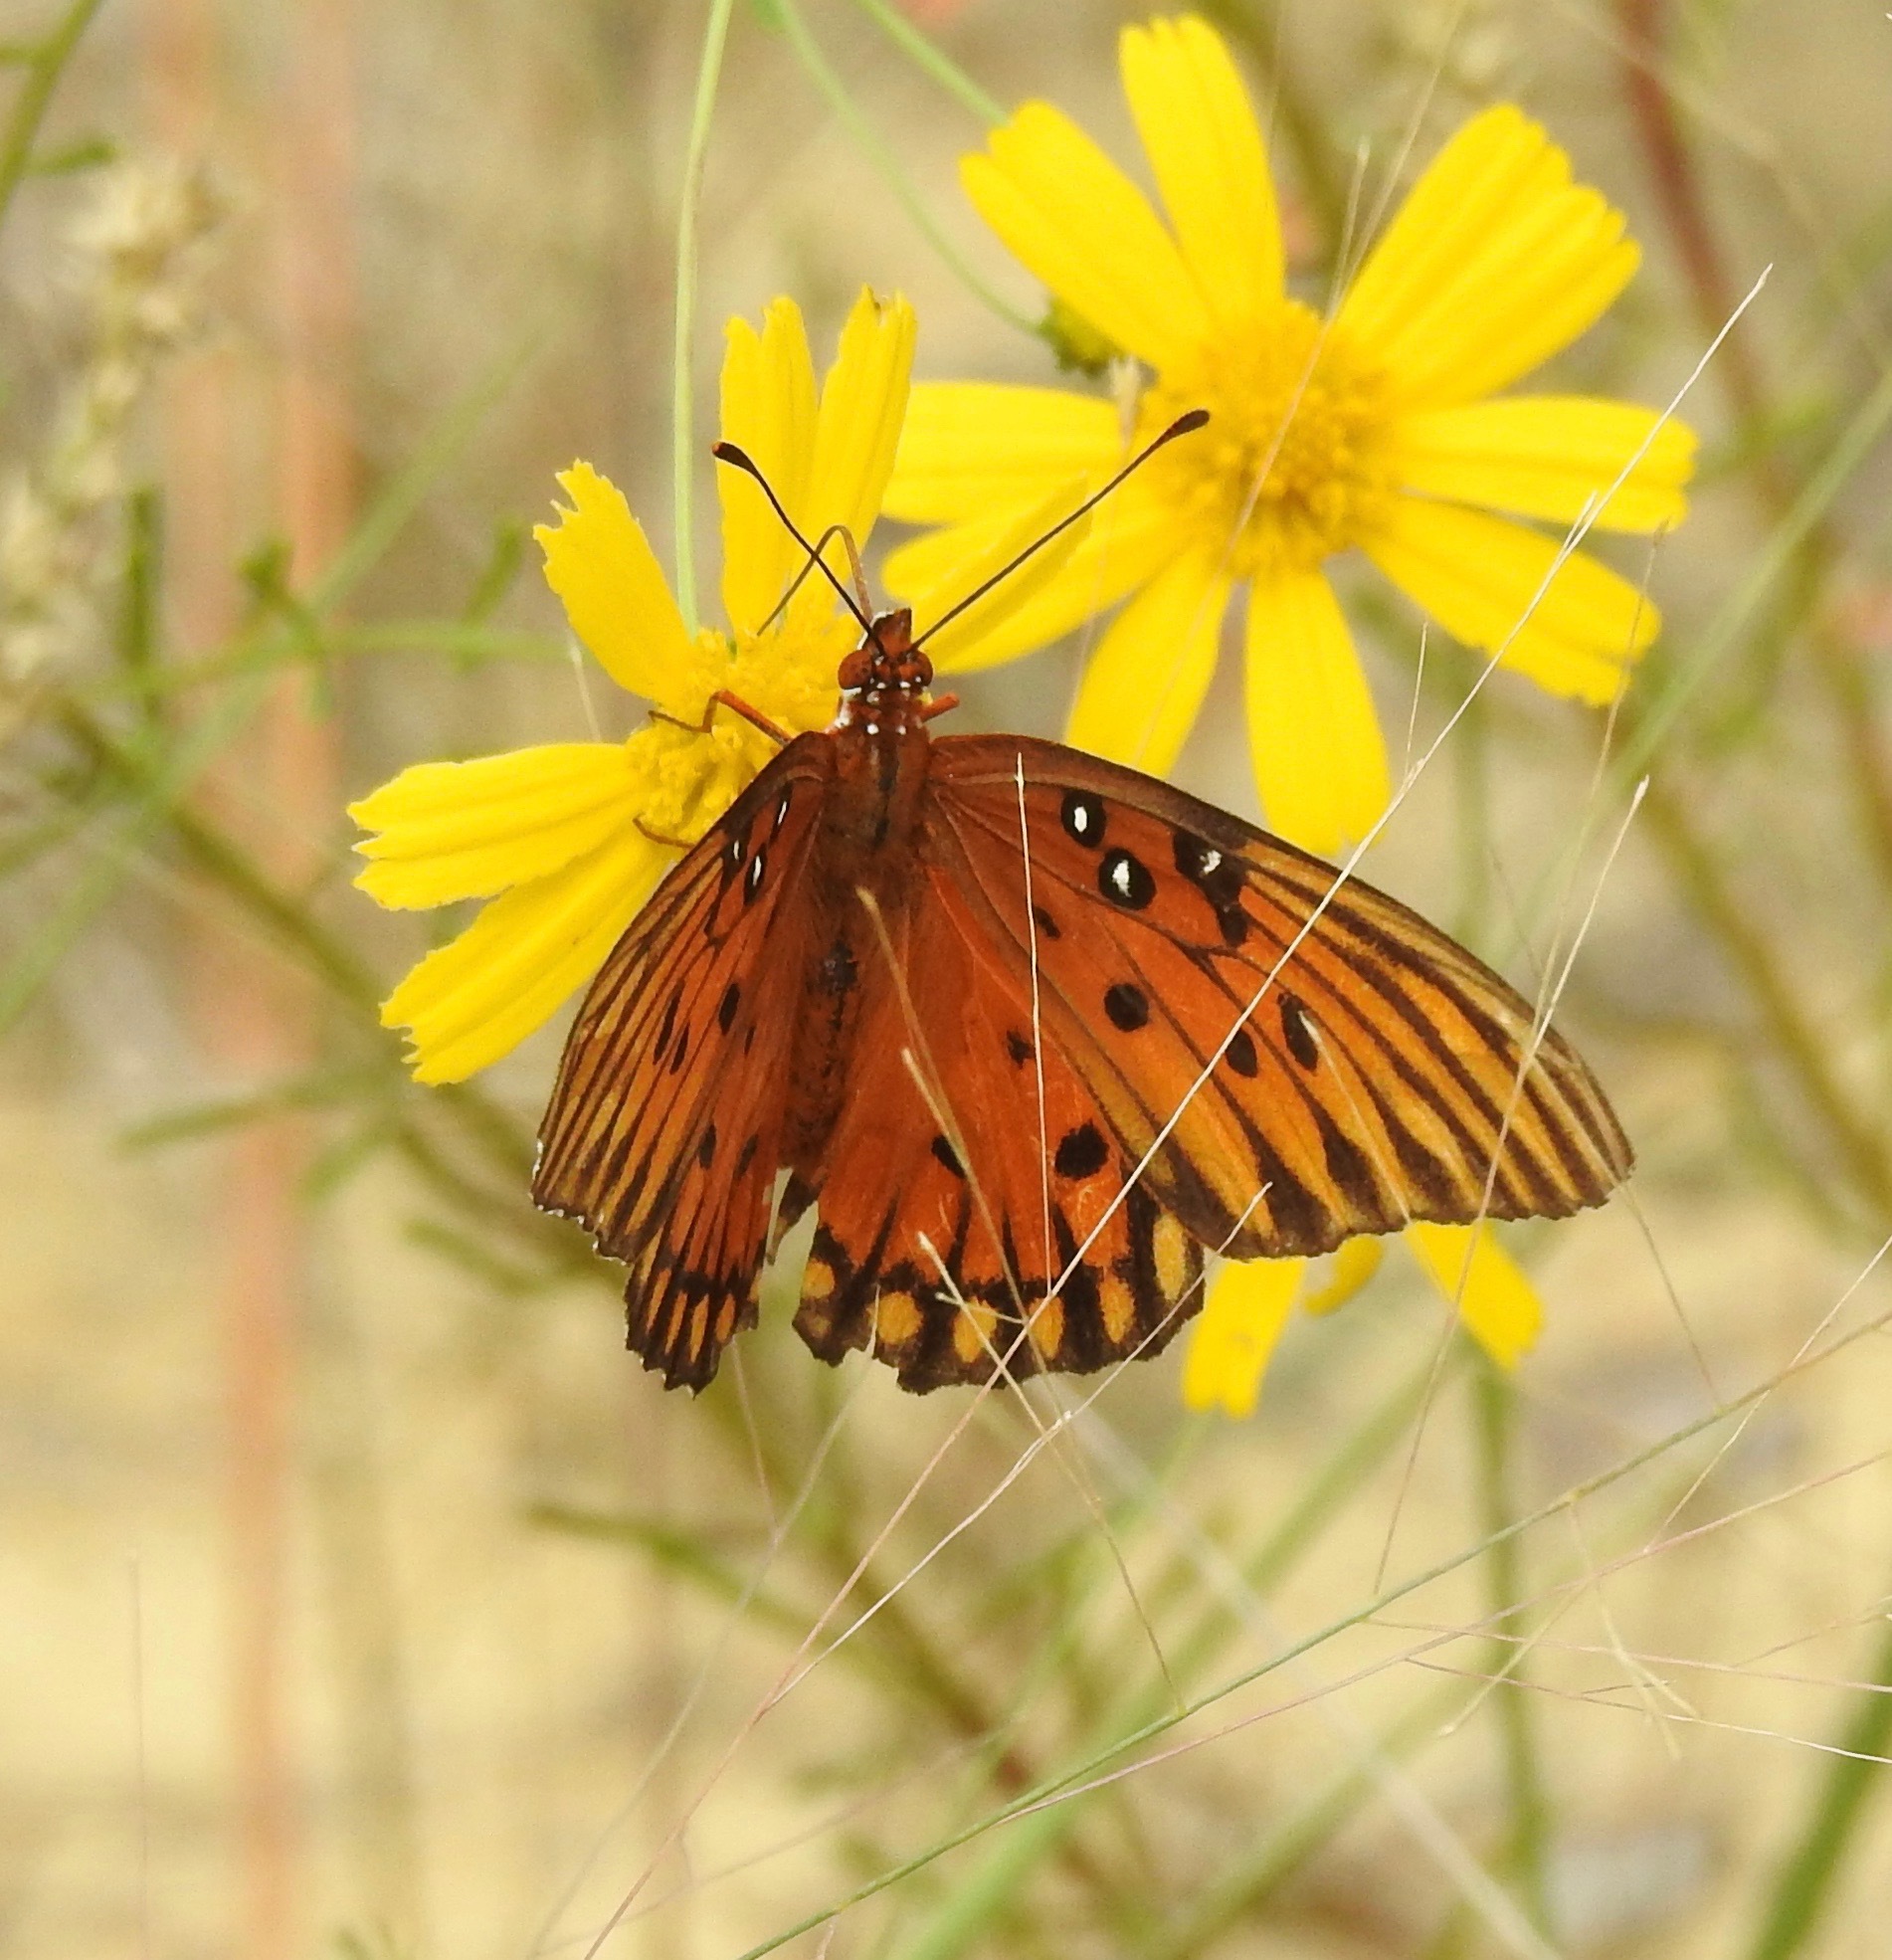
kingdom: Animalia
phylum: Arthropoda
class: Insecta
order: Lepidoptera
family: Nymphalidae
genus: Dione
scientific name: Dione vanillae
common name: Gulf fritillary
